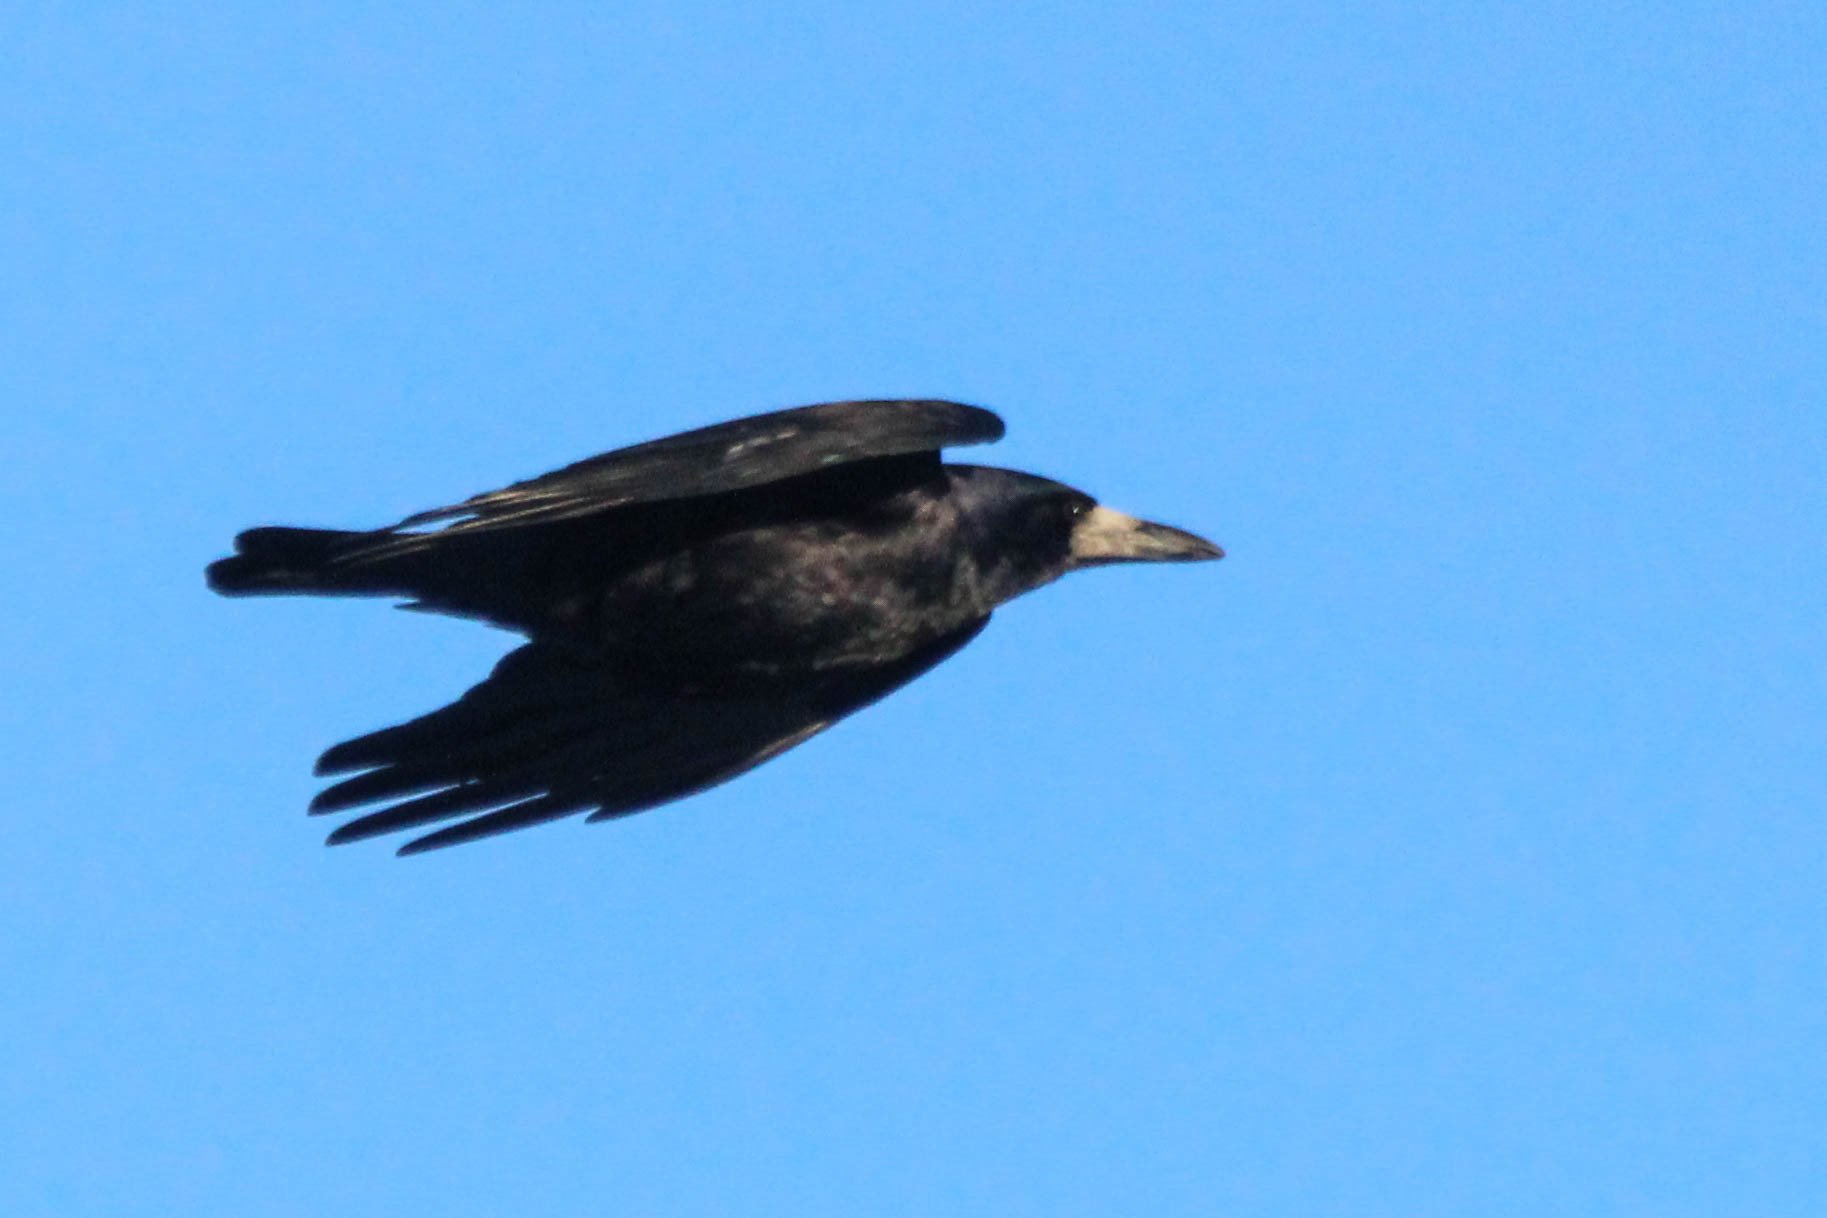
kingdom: Animalia
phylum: Chordata
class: Aves
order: Passeriformes
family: Corvidae
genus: Corvus
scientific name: Corvus frugilegus
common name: Rook
